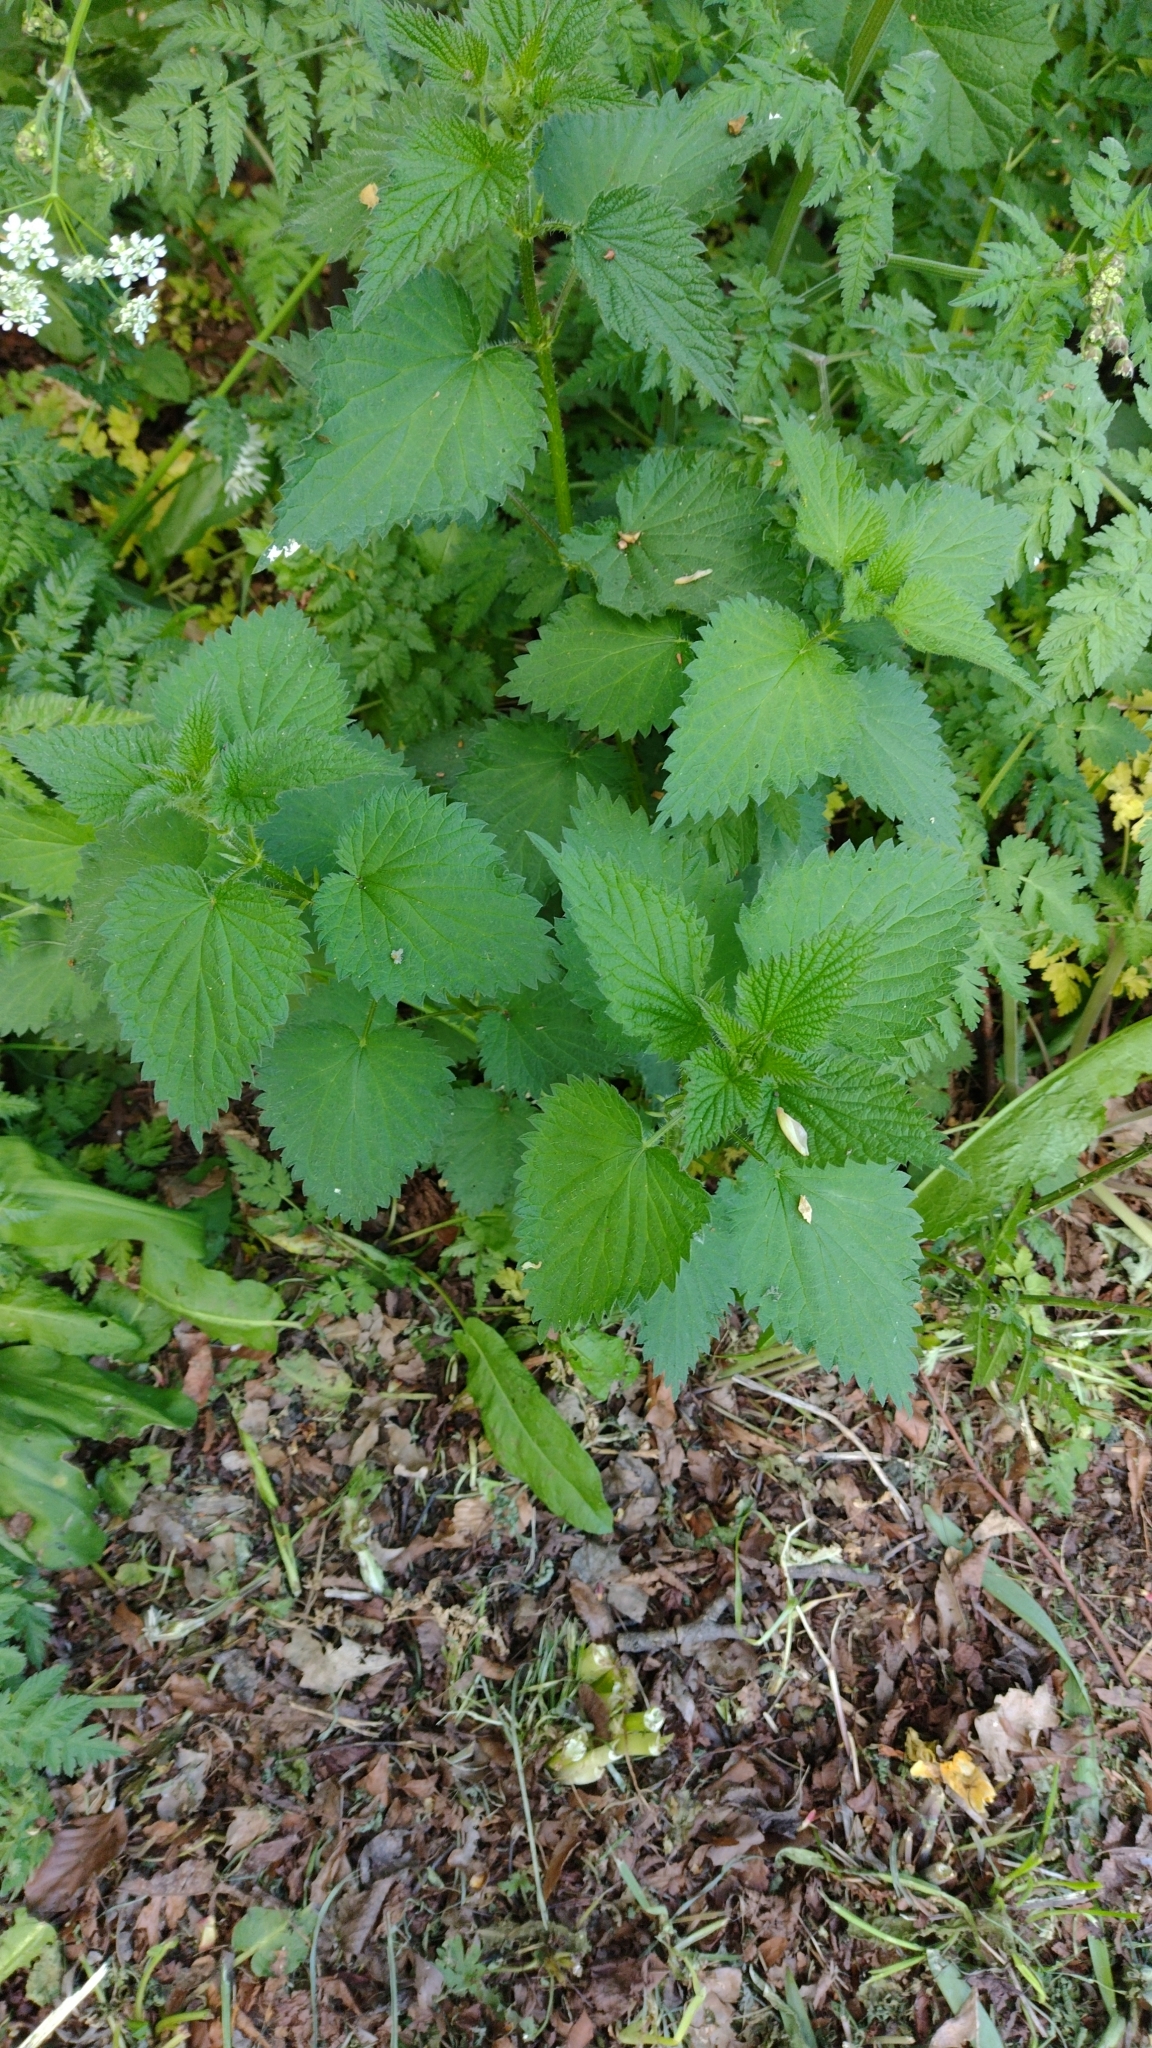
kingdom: Plantae
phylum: Tracheophyta
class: Magnoliopsida
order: Rosales
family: Urticaceae
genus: Urtica
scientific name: Urtica dioica
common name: Common nettle
